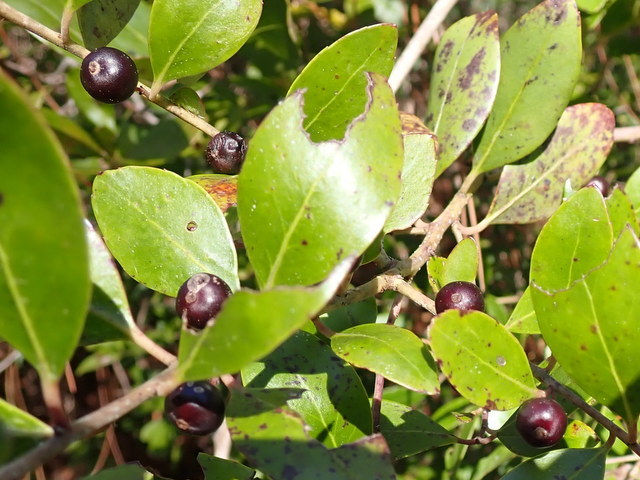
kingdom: Plantae
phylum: Tracheophyta
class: Magnoliopsida
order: Aquifoliales
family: Aquifoliaceae
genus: Ilex
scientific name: Ilex glabra
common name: Bitter gallberry
